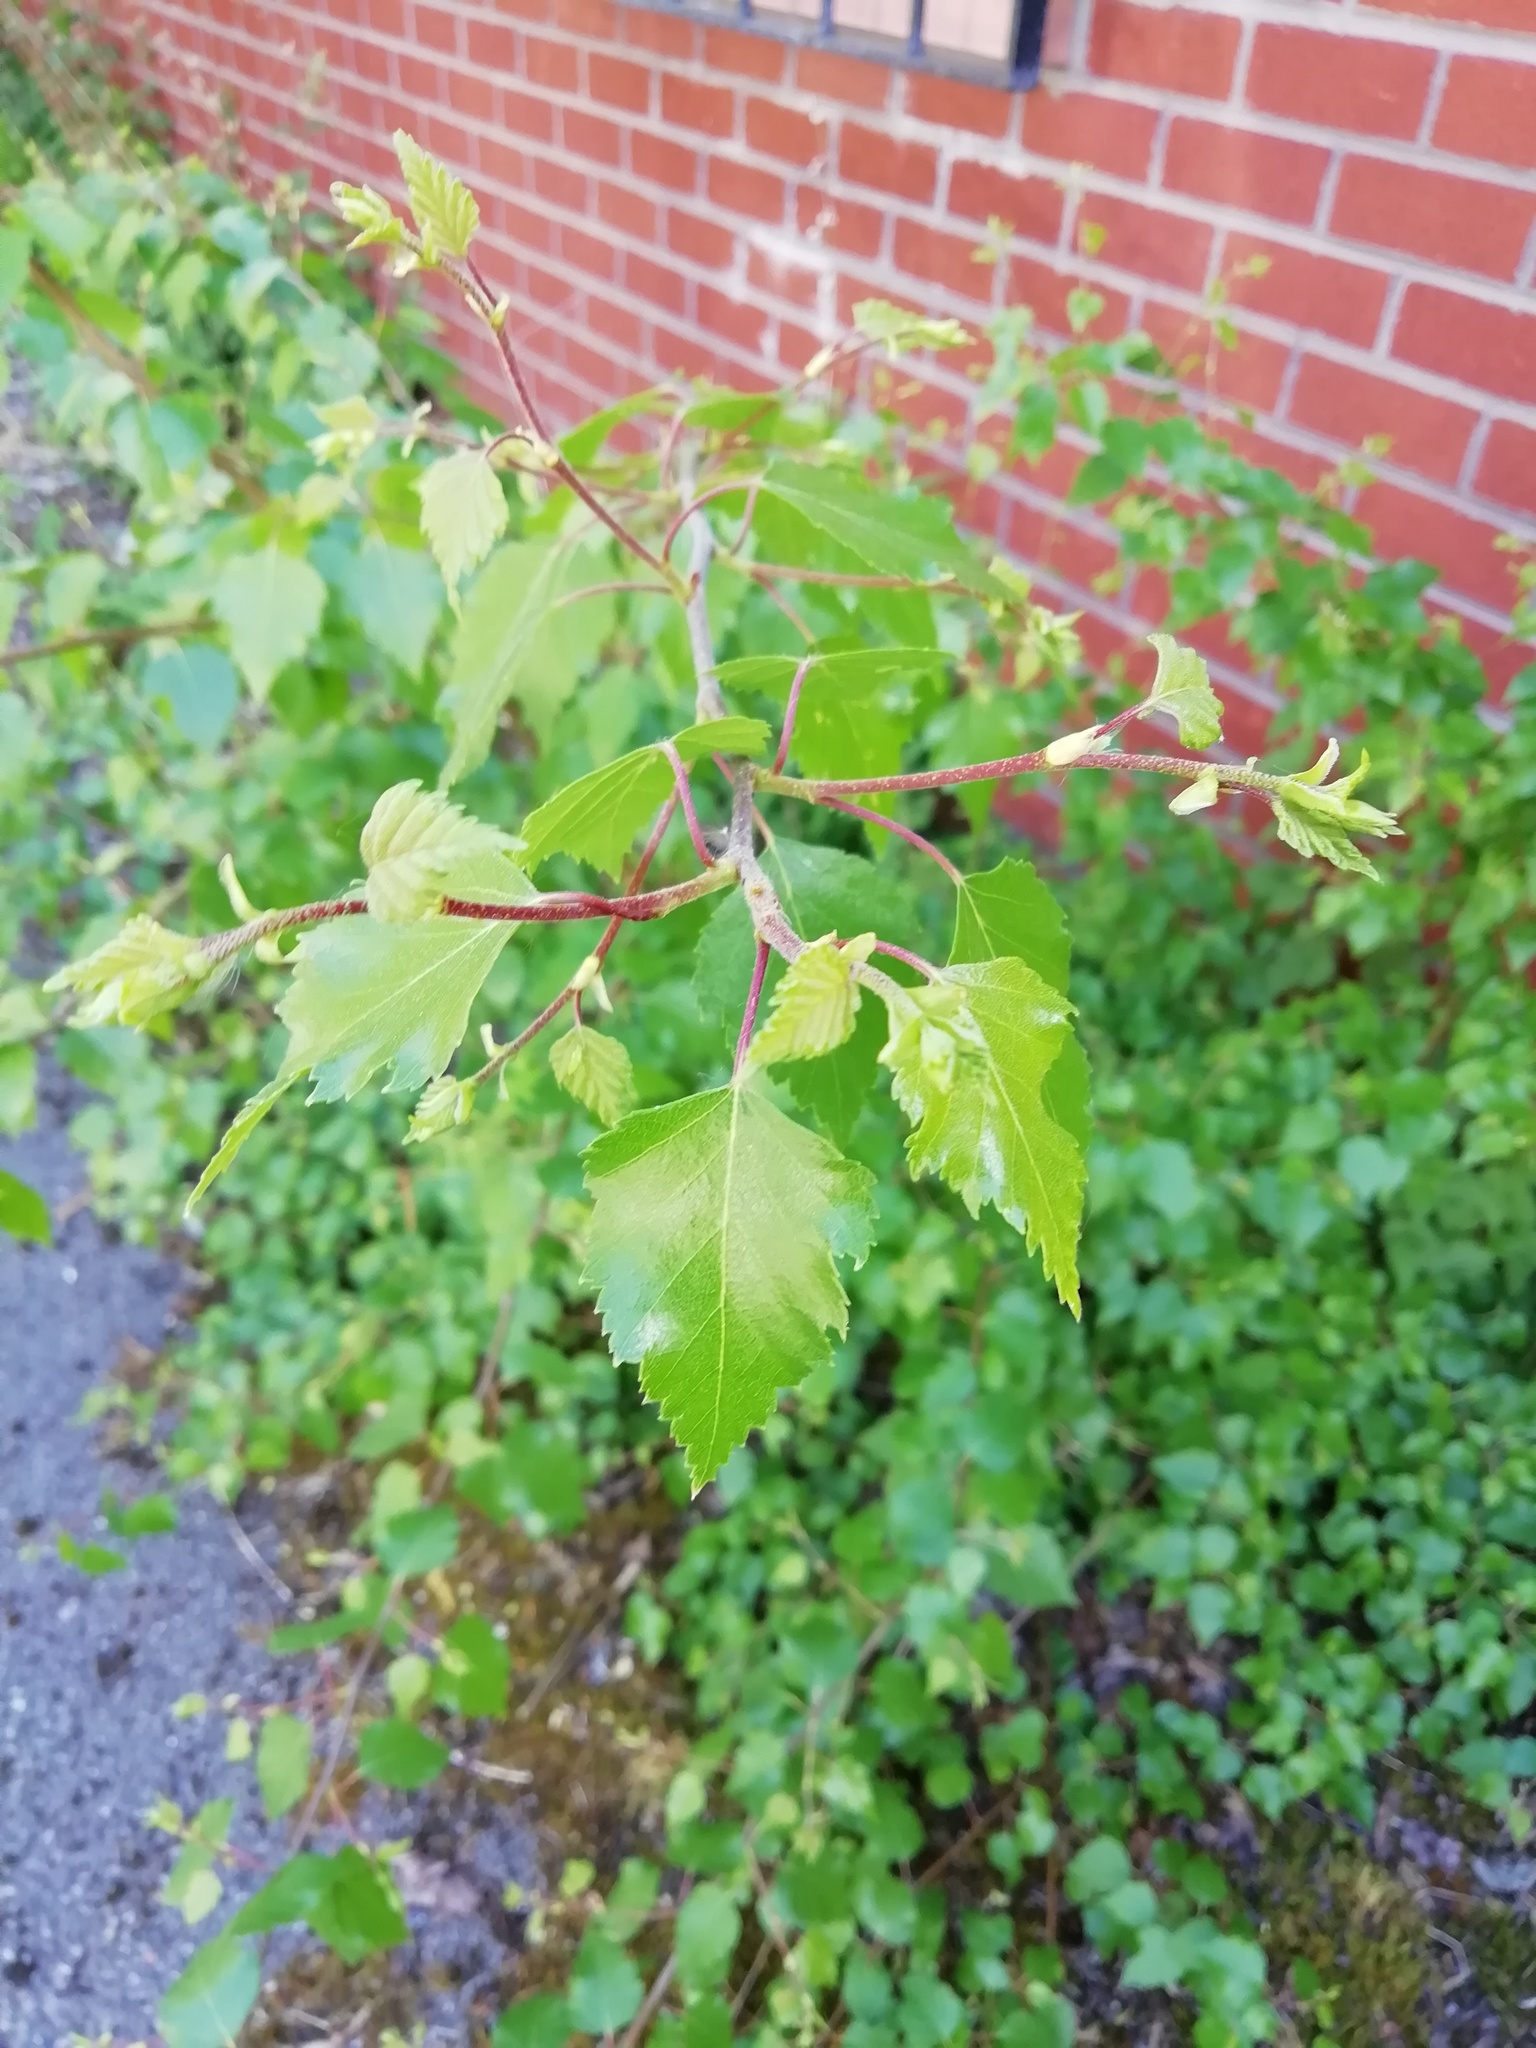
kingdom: Plantae
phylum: Tracheophyta
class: Magnoliopsida
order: Fagales
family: Betulaceae
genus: Betula
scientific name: Betula pendula
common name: Silver birch
